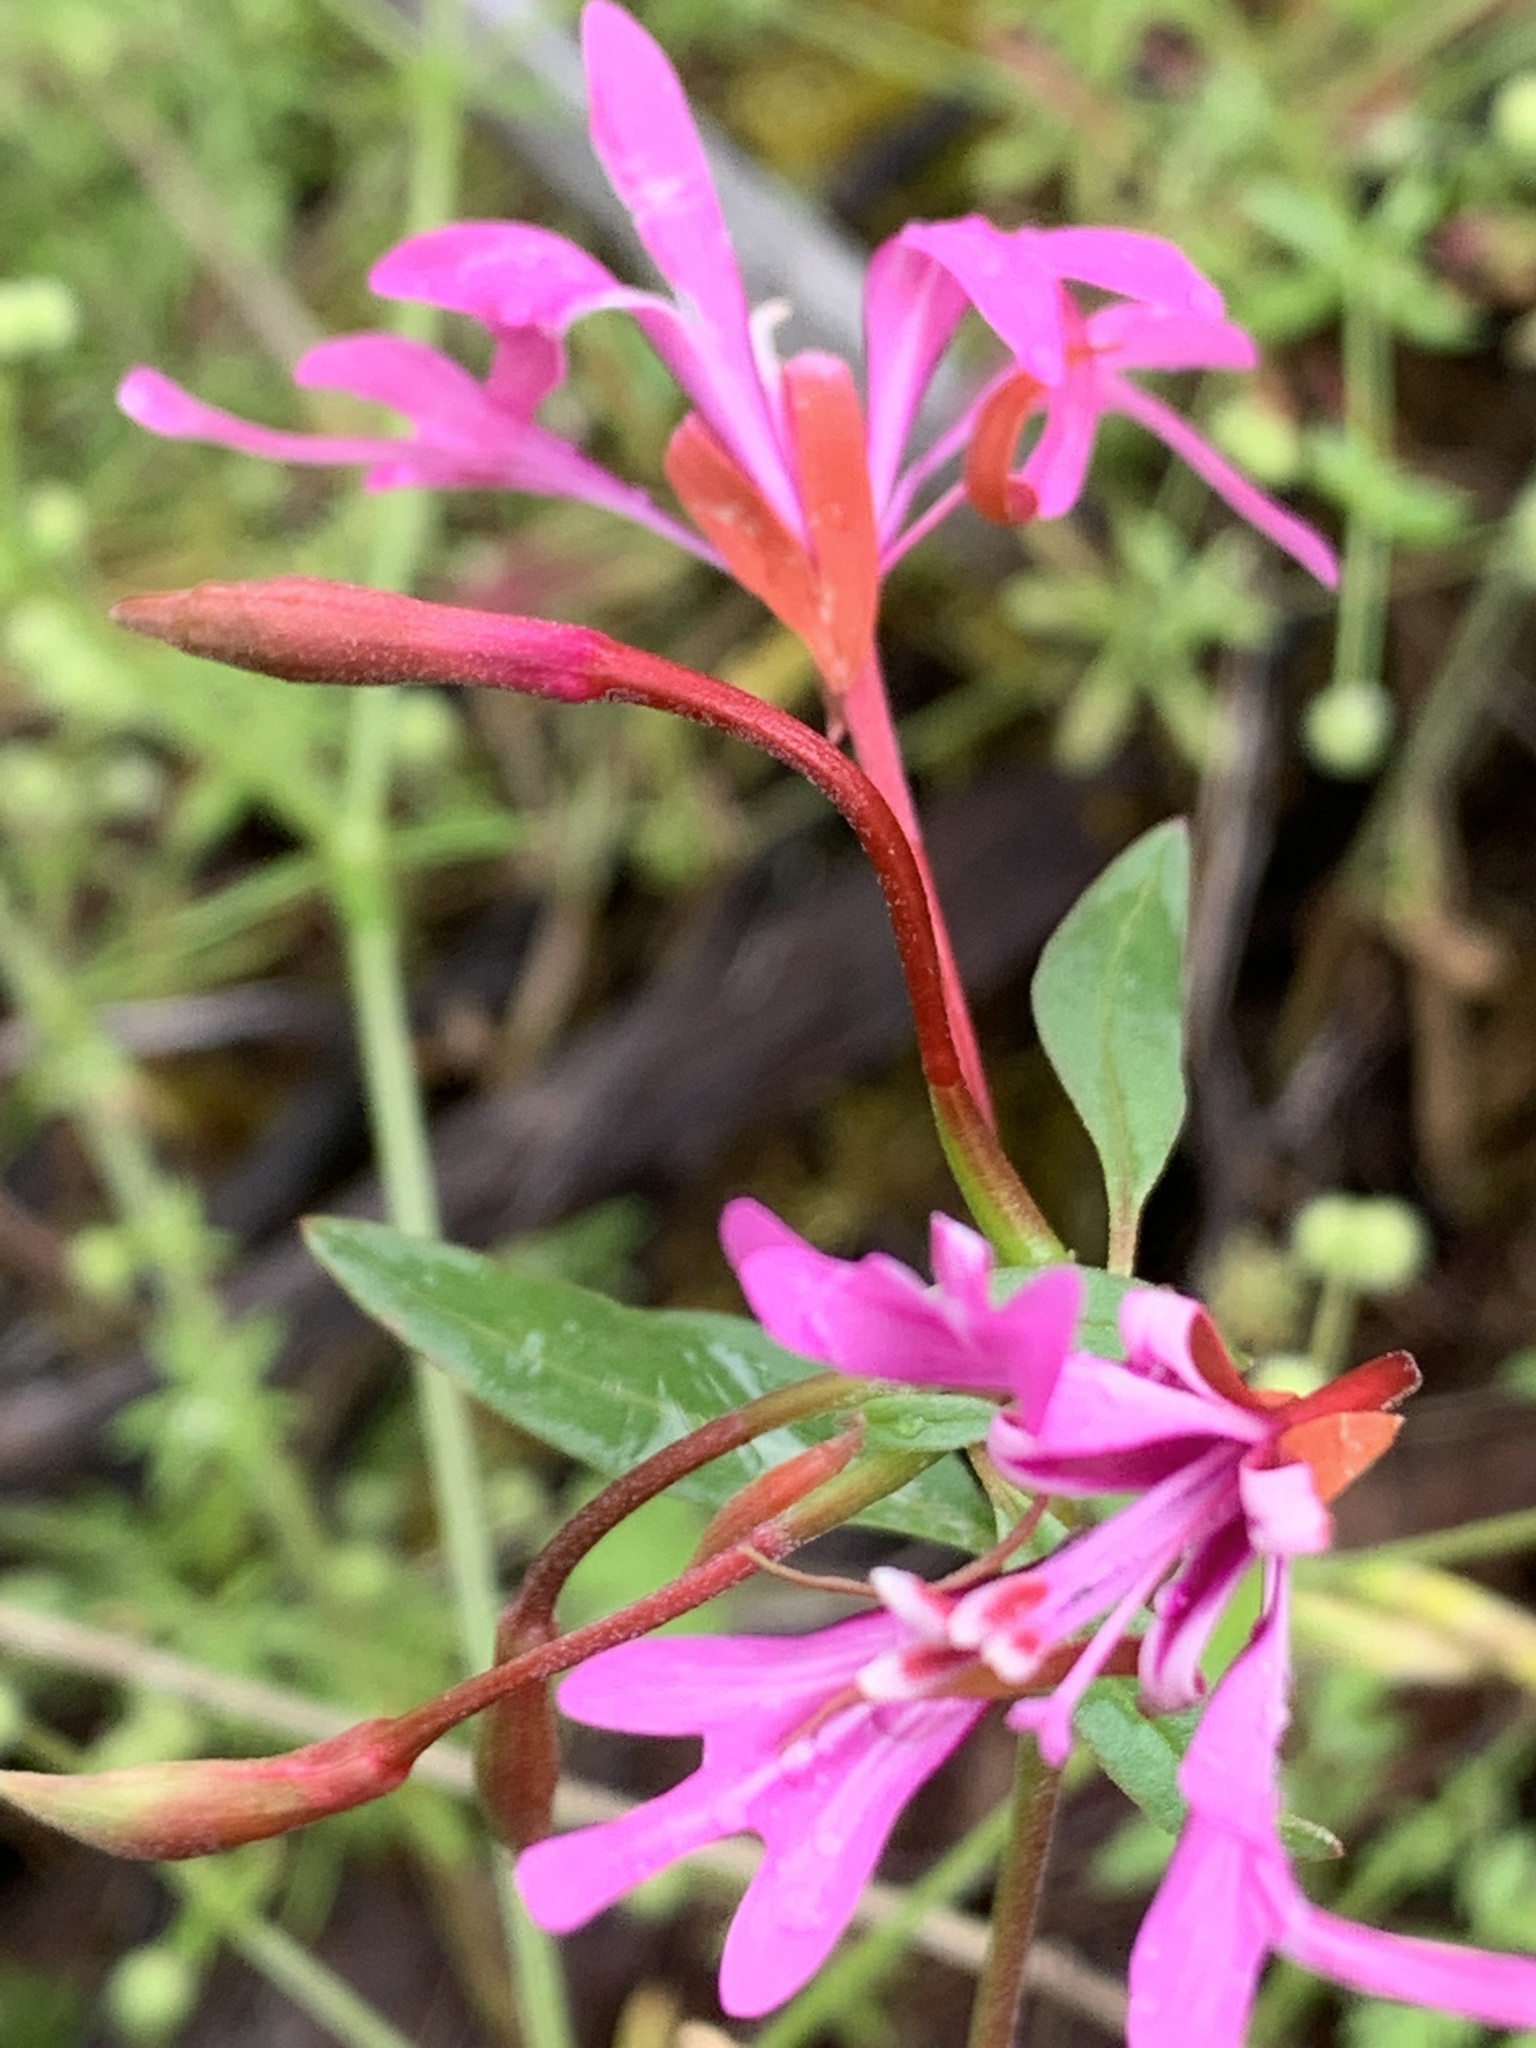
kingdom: Plantae
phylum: Tracheophyta
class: Magnoliopsida
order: Myrtales
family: Onagraceae
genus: Clarkia
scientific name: Clarkia concinna
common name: Red-ribbons
